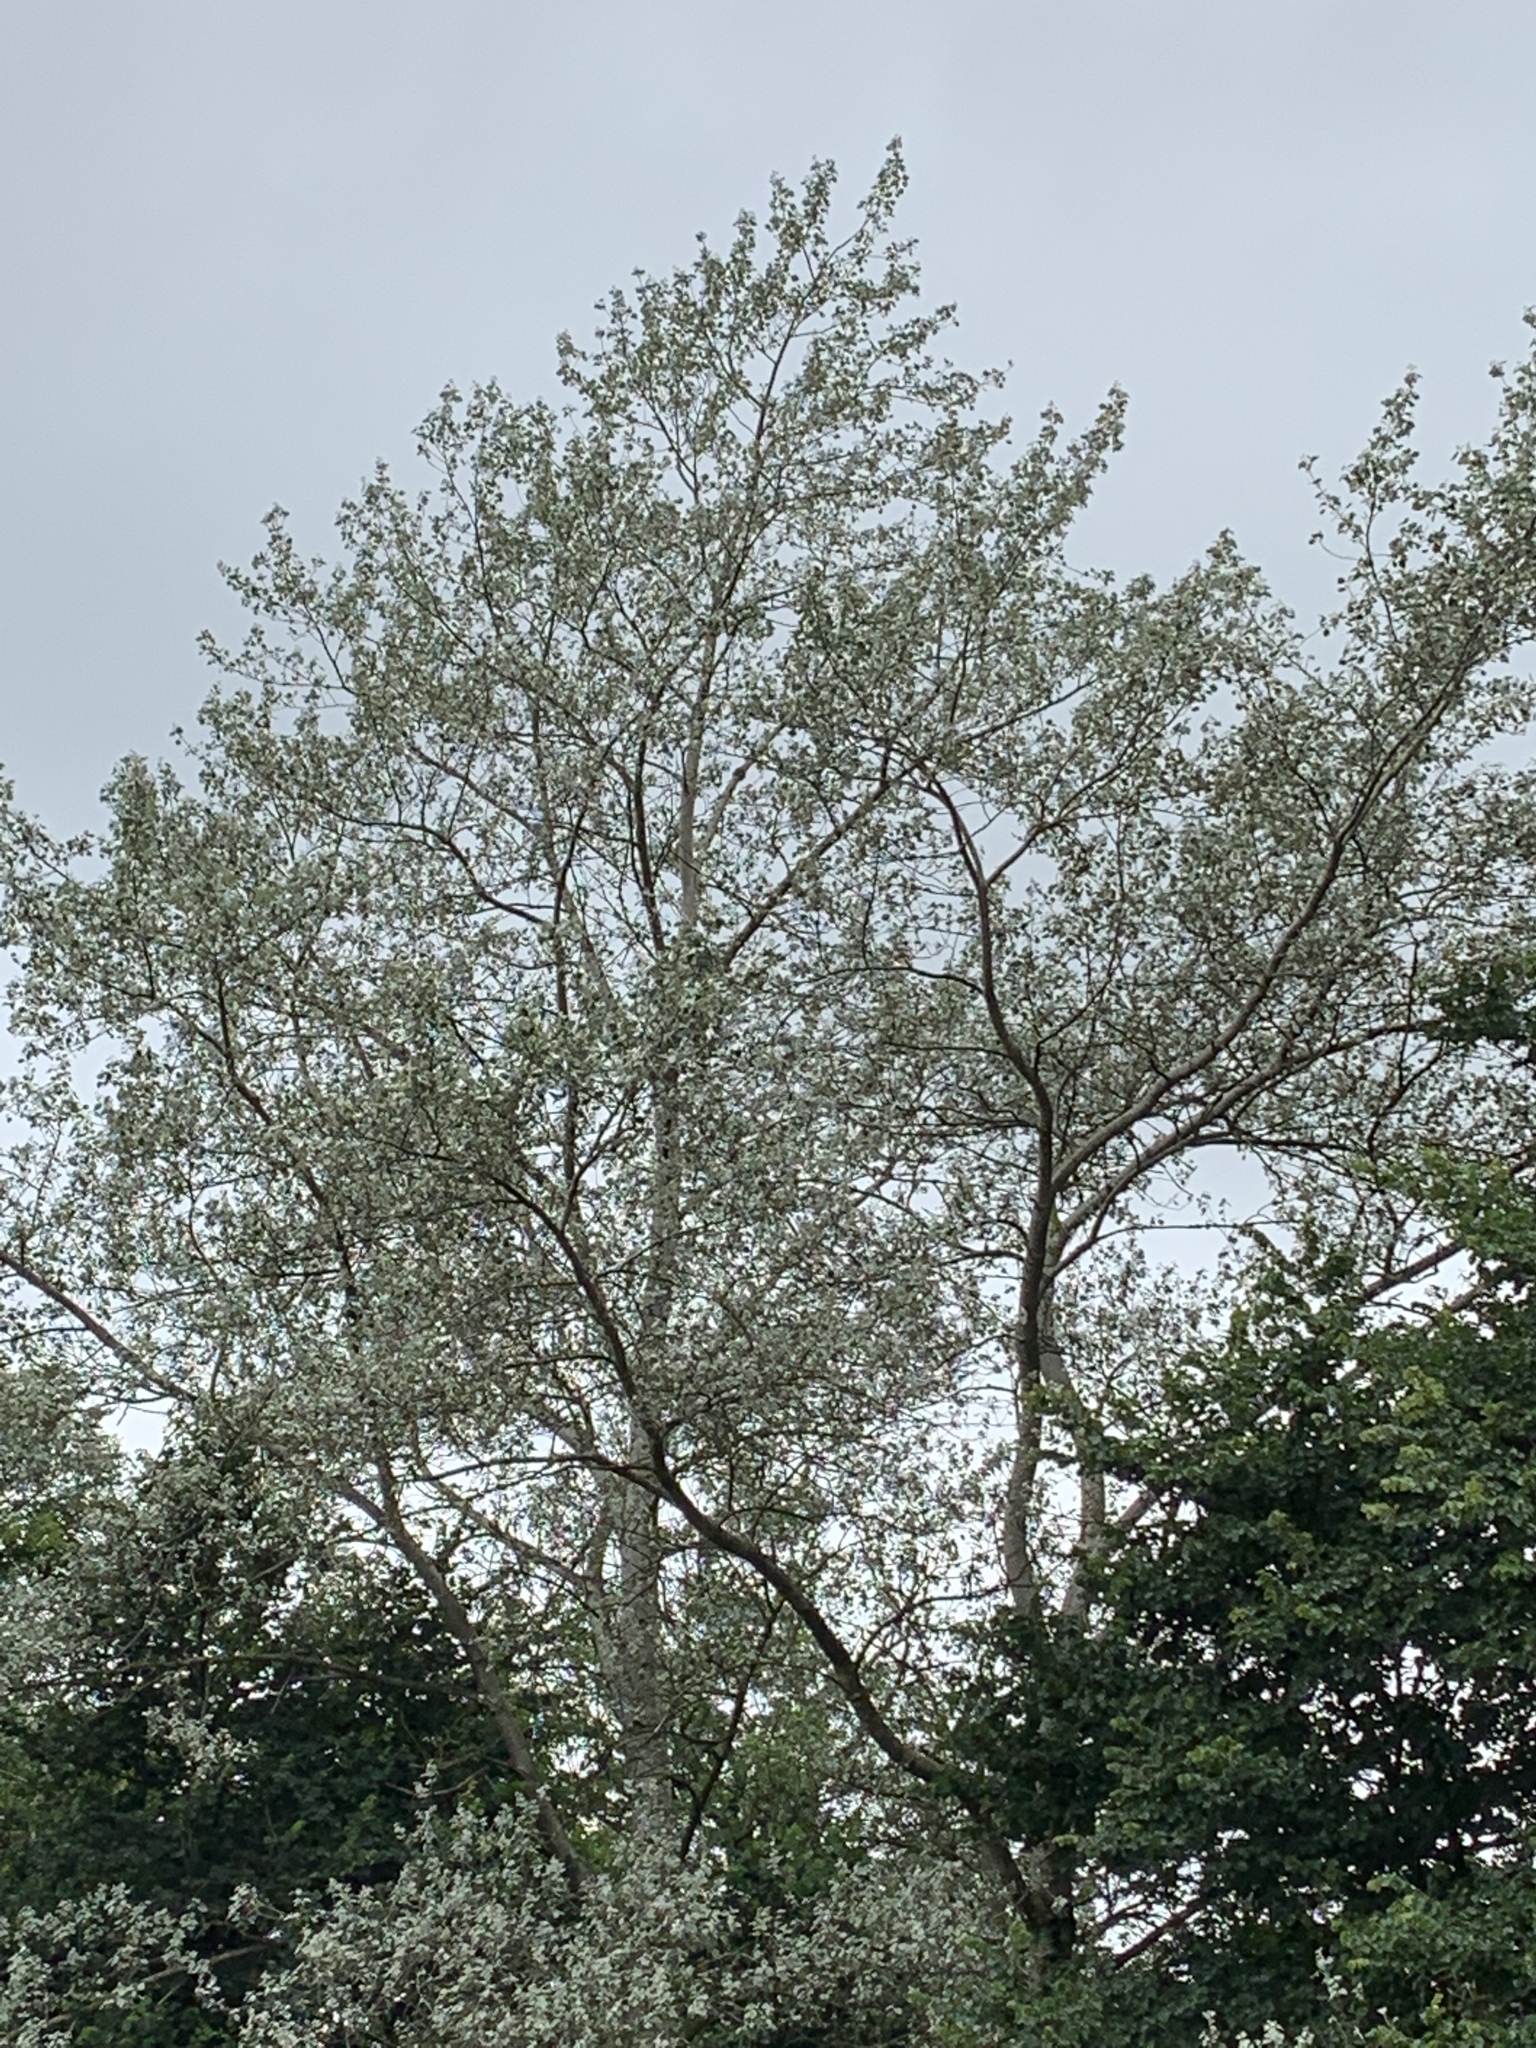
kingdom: Plantae
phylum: Tracheophyta
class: Magnoliopsida
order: Malpighiales
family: Salicaceae
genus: Populus
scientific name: Populus alba
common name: White poplar
